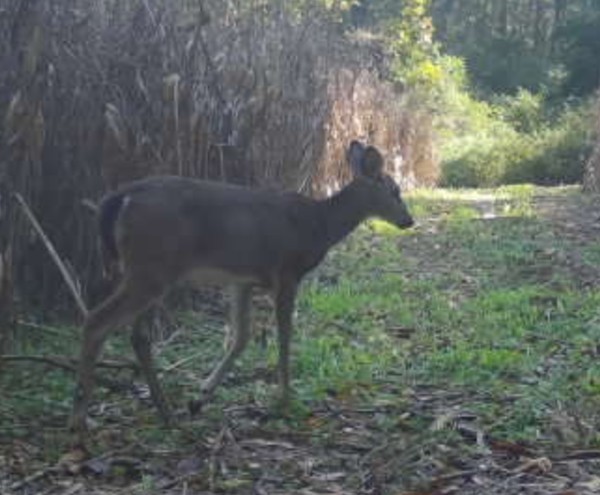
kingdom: Animalia
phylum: Chordata
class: Mammalia
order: Artiodactyla
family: Cervidae
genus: Odocoileus
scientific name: Odocoileus virginianus
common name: White-tailed deer
